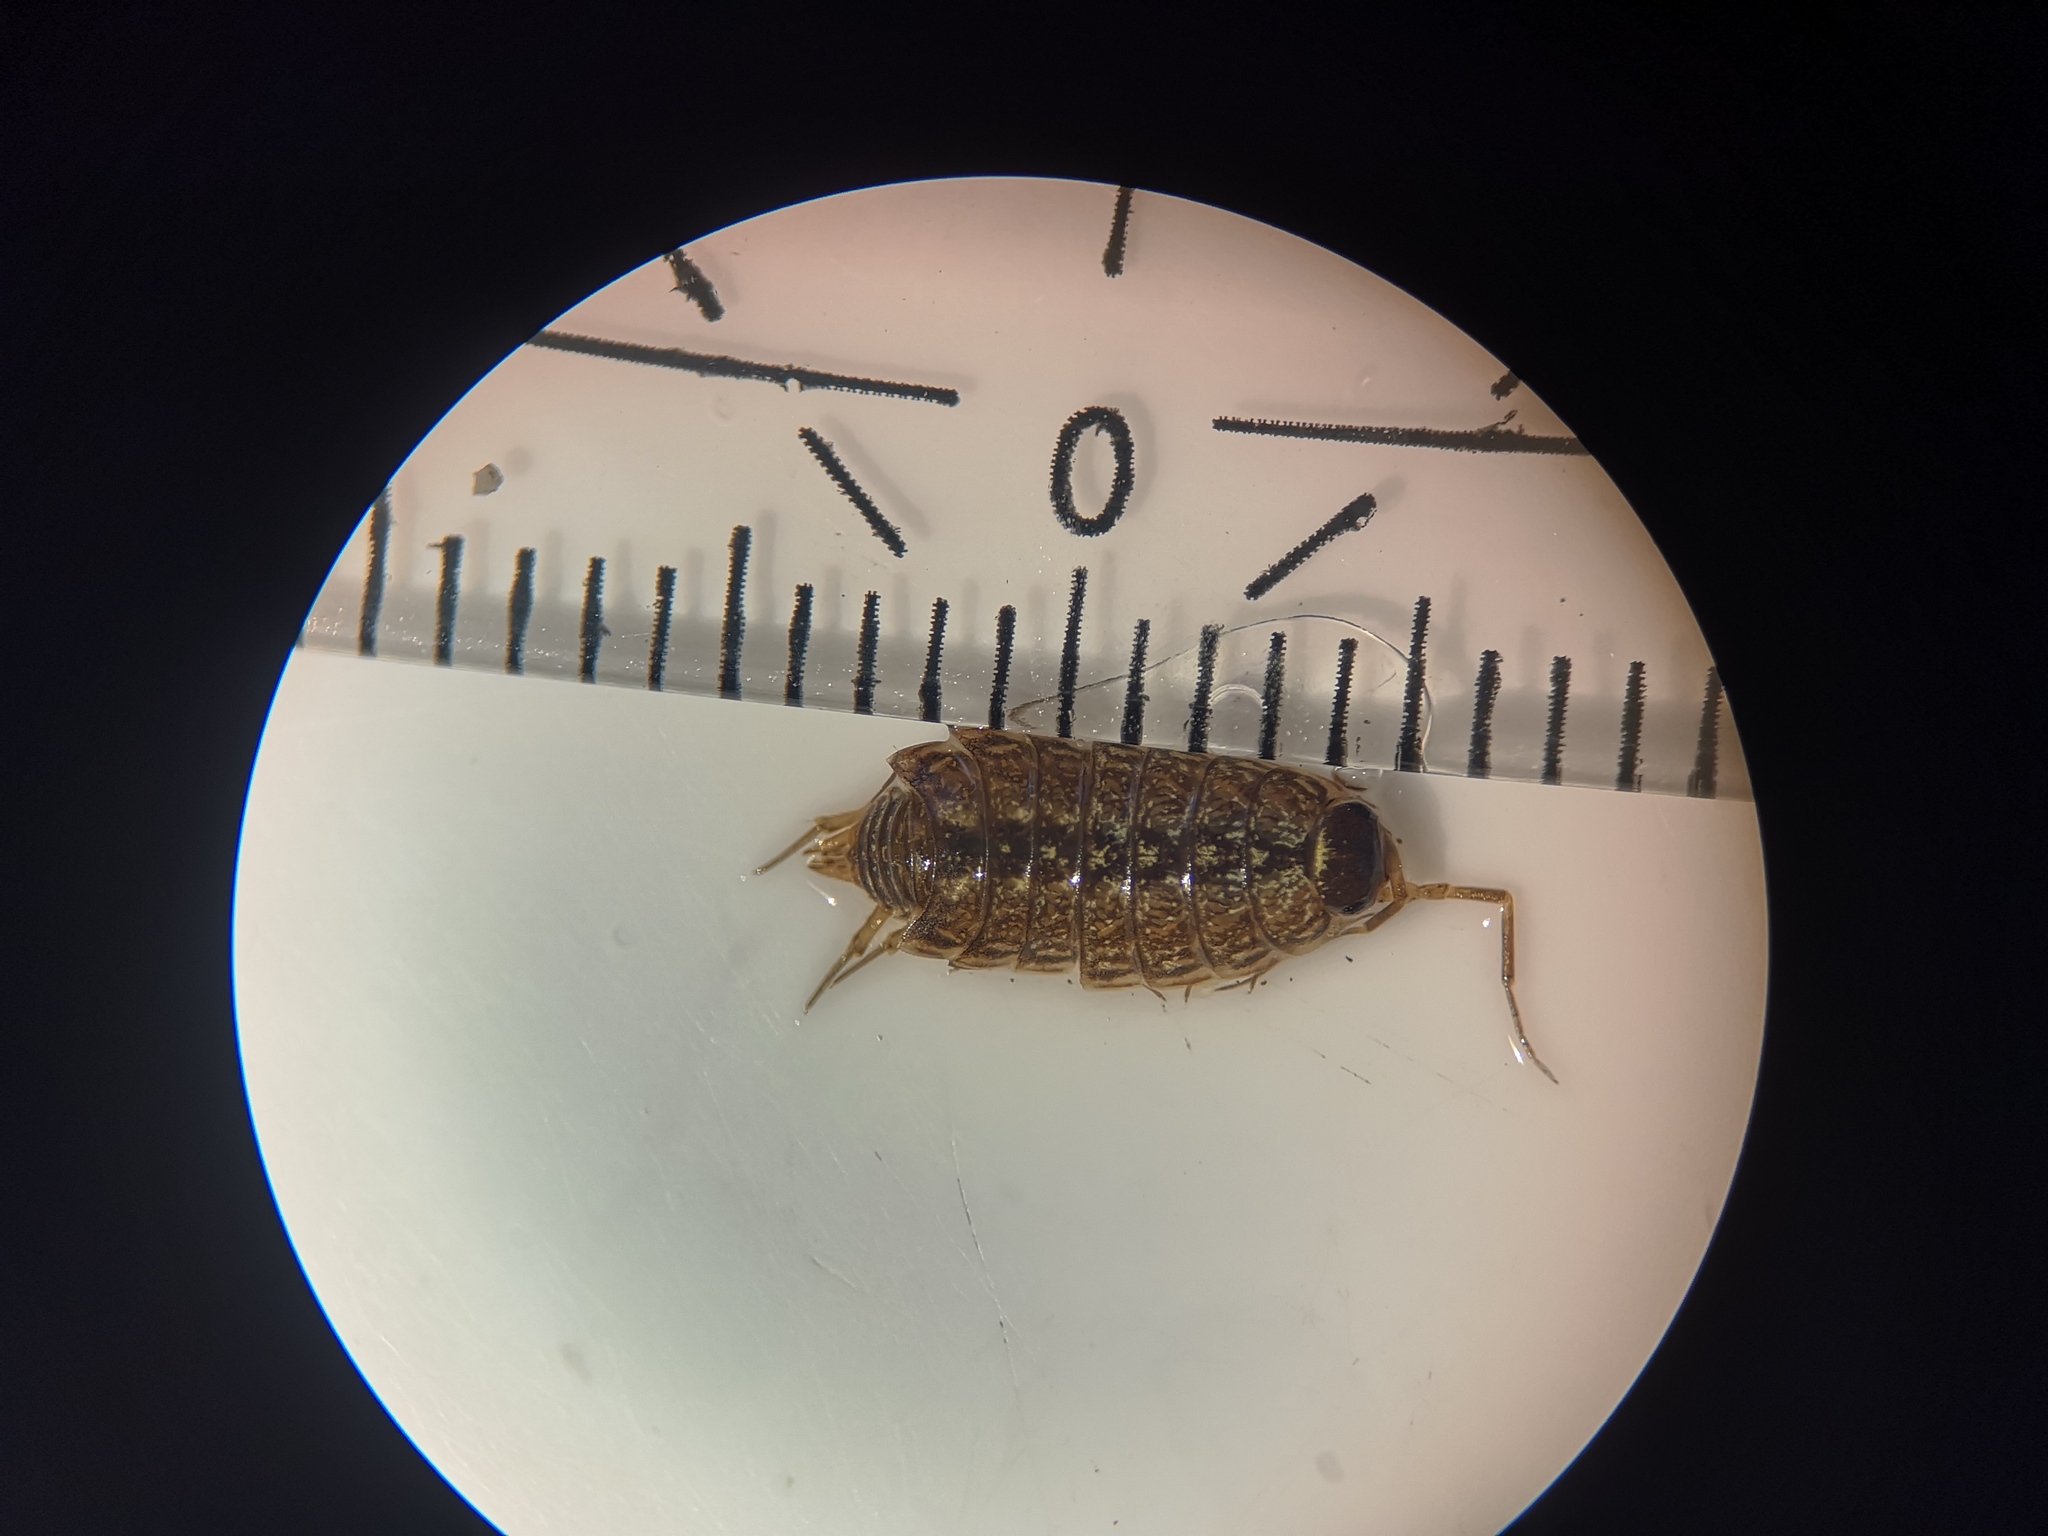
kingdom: Animalia
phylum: Arthropoda
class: Malacostraca
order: Isopoda
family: Philosciidae
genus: Philoscia
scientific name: Philoscia muscorum
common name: Common striped woodlouse
